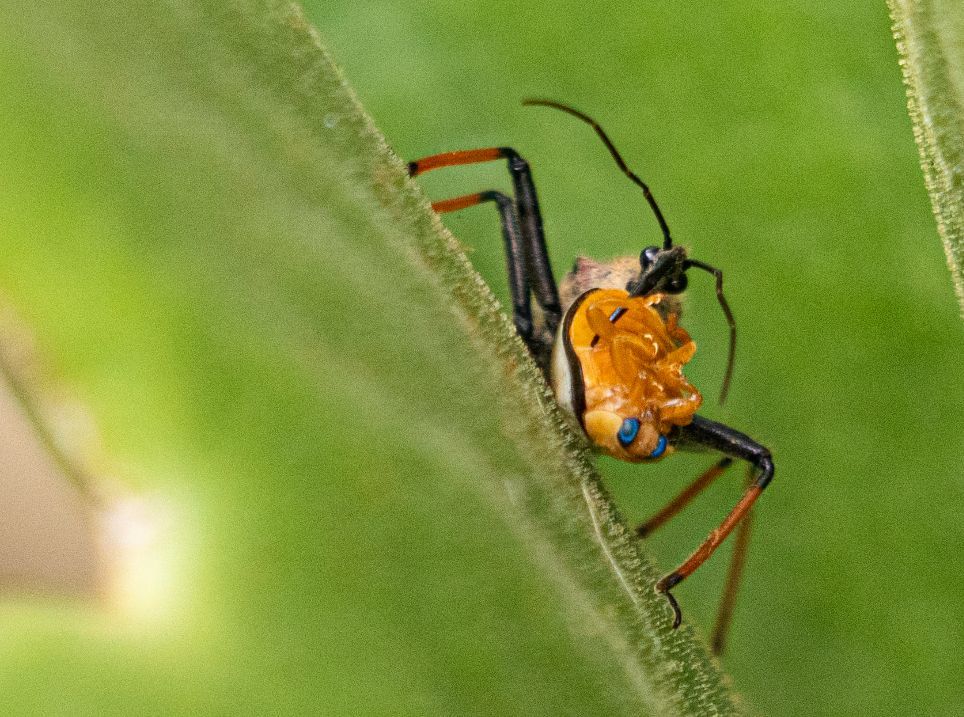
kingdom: Animalia
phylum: Arthropoda
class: Insecta
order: Hemiptera
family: Reduviidae
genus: Rhynocoris
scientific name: Rhynocoris erythrocnemis
